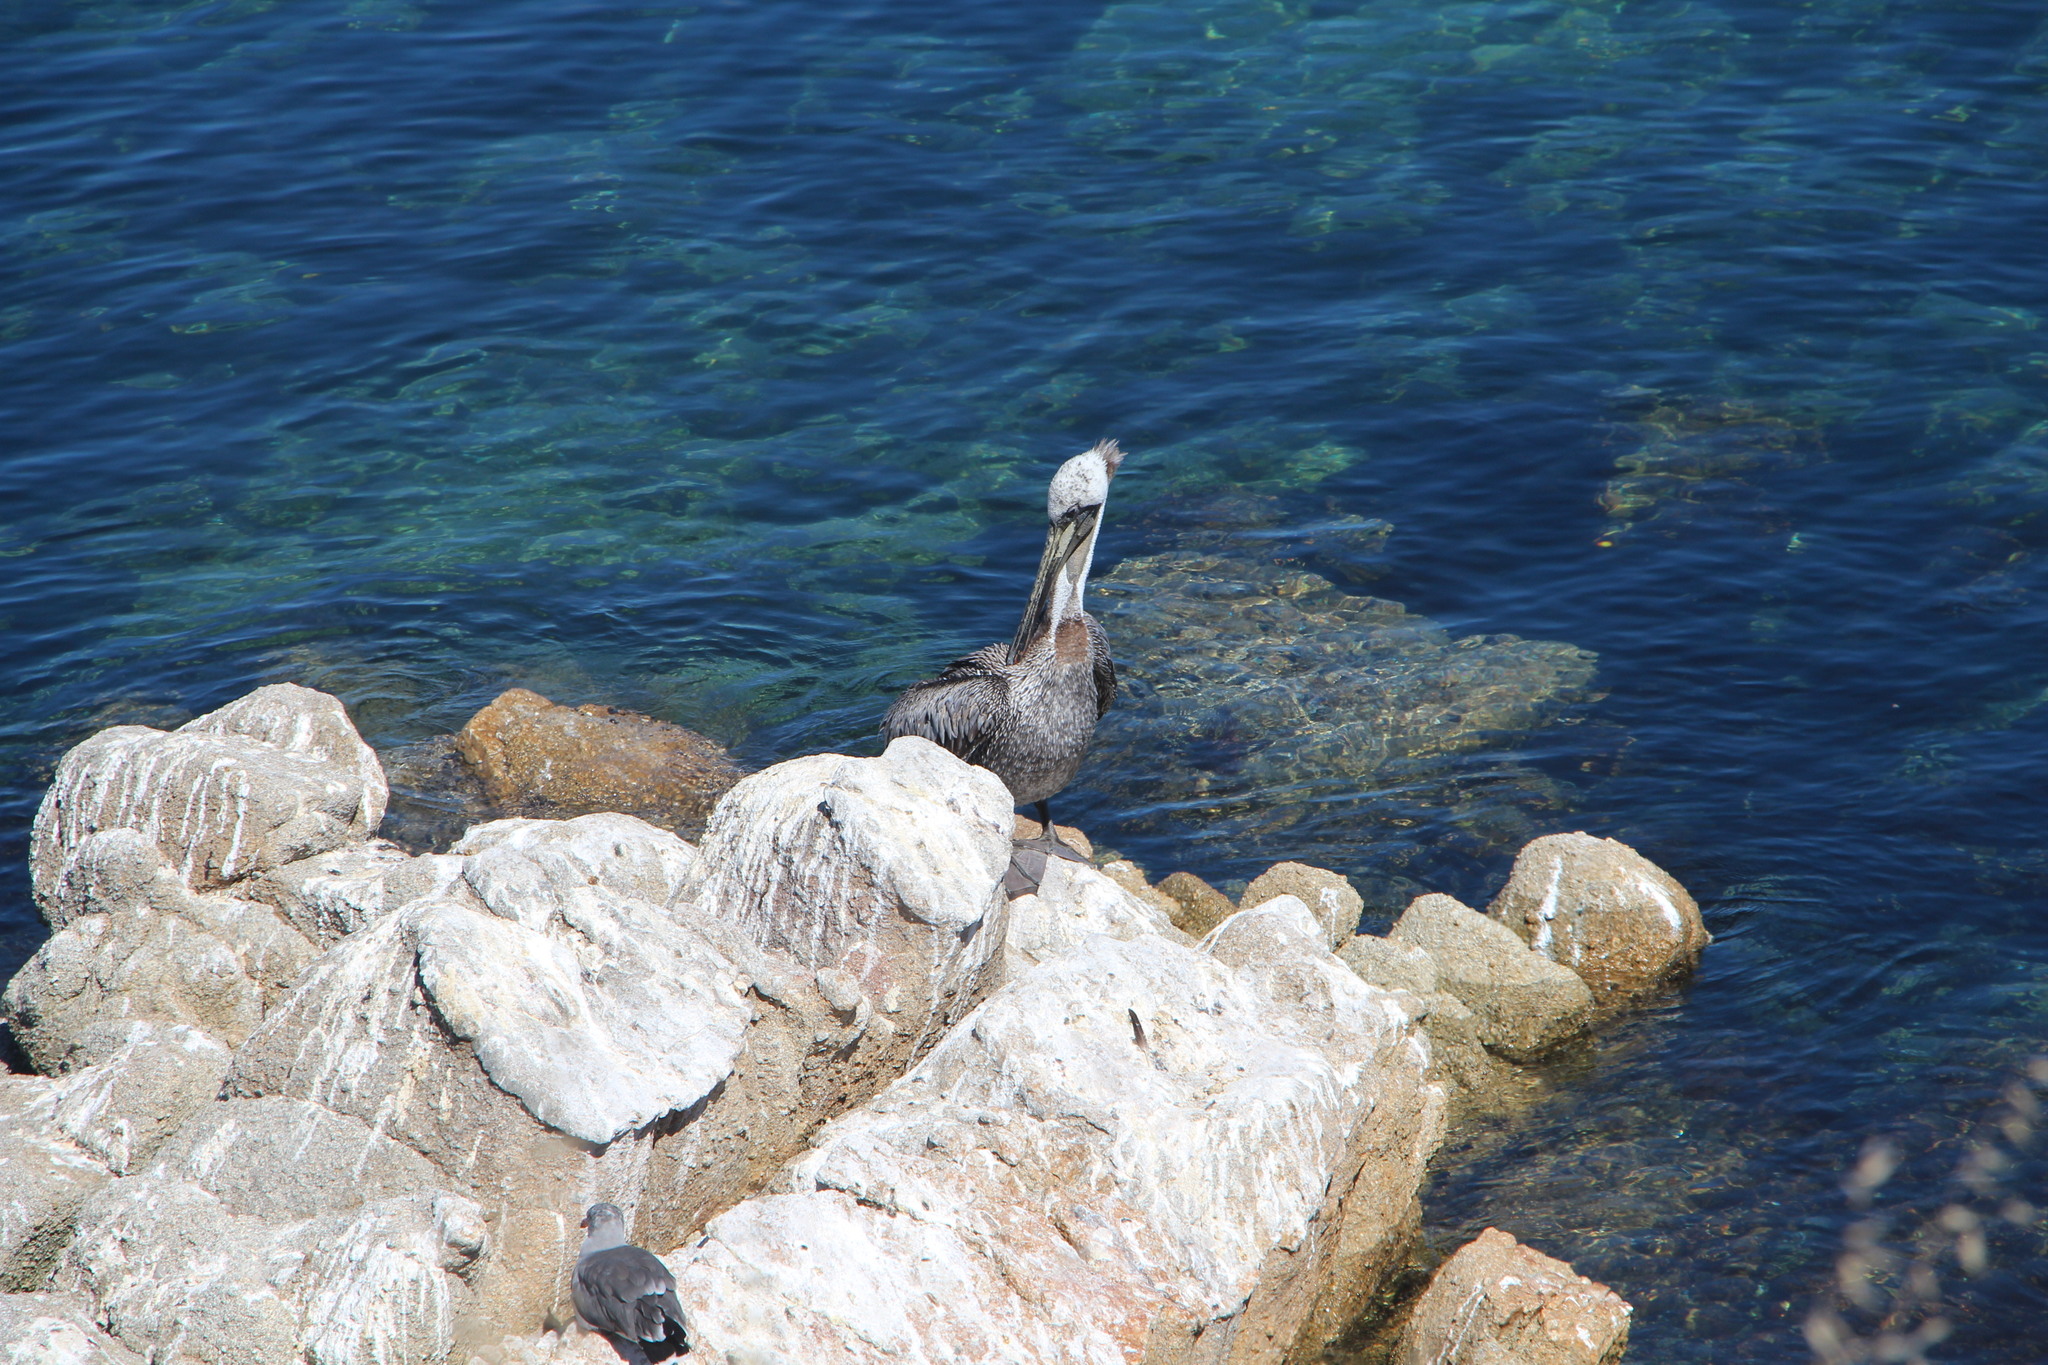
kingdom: Animalia
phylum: Chordata
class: Aves
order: Pelecaniformes
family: Pelecanidae
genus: Pelecanus
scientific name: Pelecanus occidentalis
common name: Brown pelican
